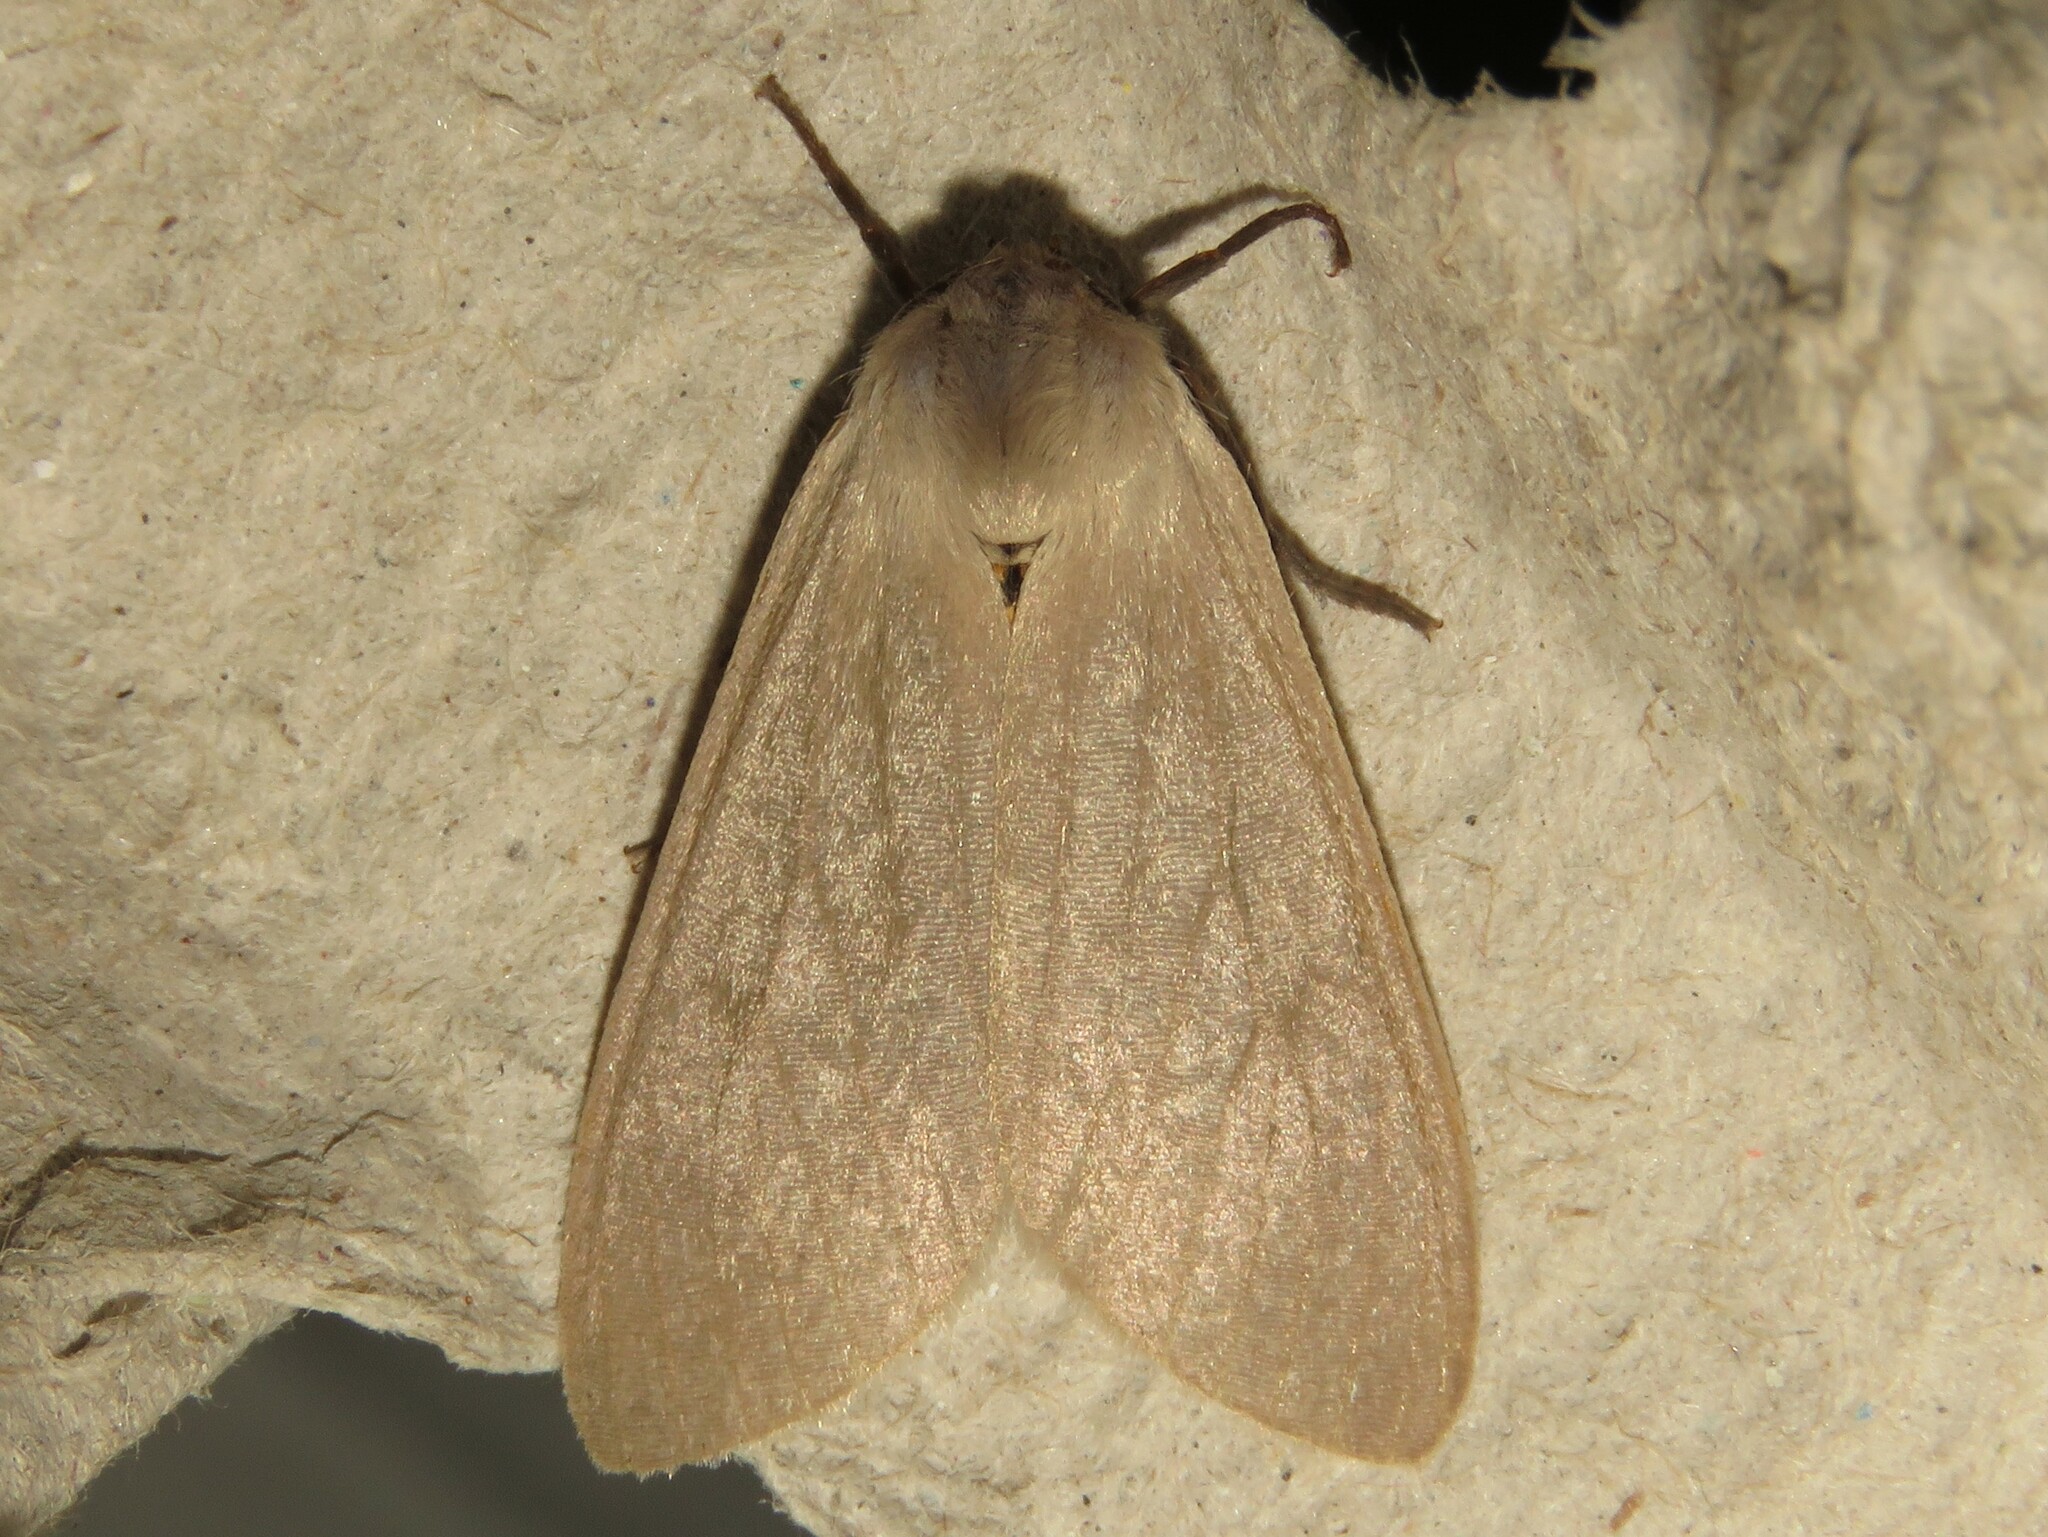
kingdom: Animalia
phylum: Arthropoda
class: Insecta
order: Lepidoptera
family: Erebidae
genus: Euchaetes
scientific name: Euchaetes egle
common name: Milkweed tussock moth
